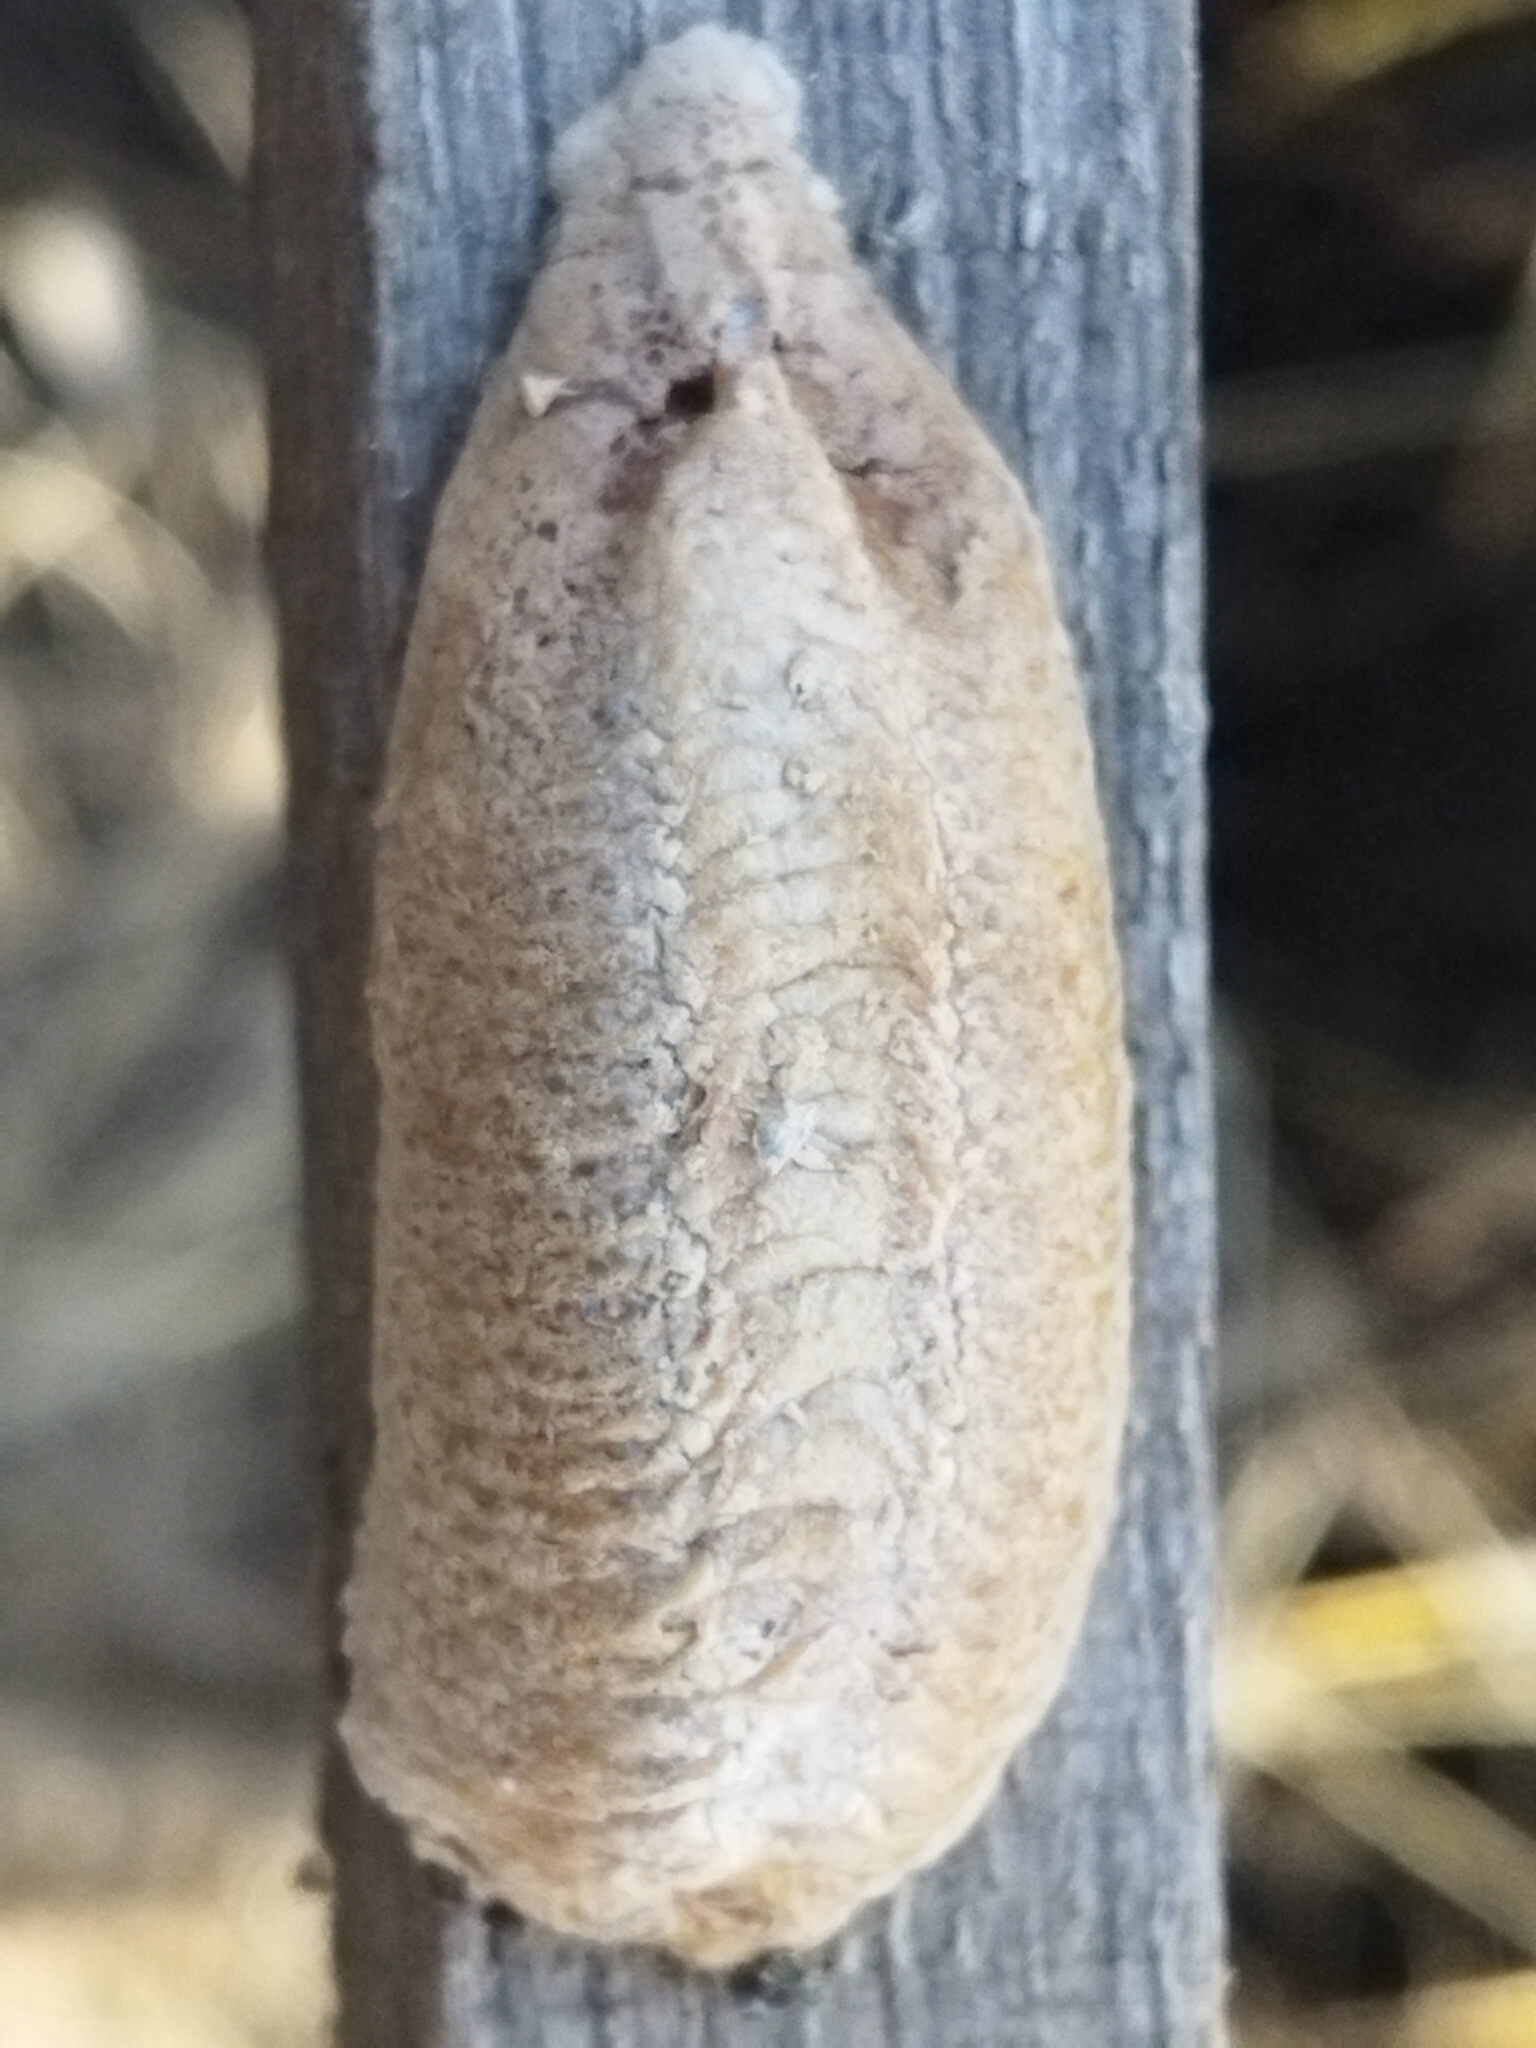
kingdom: Animalia
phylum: Arthropoda
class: Insecta
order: Mantodea
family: Mantidae
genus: Mantis
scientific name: Mantis religiosa
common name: Praying mantis
